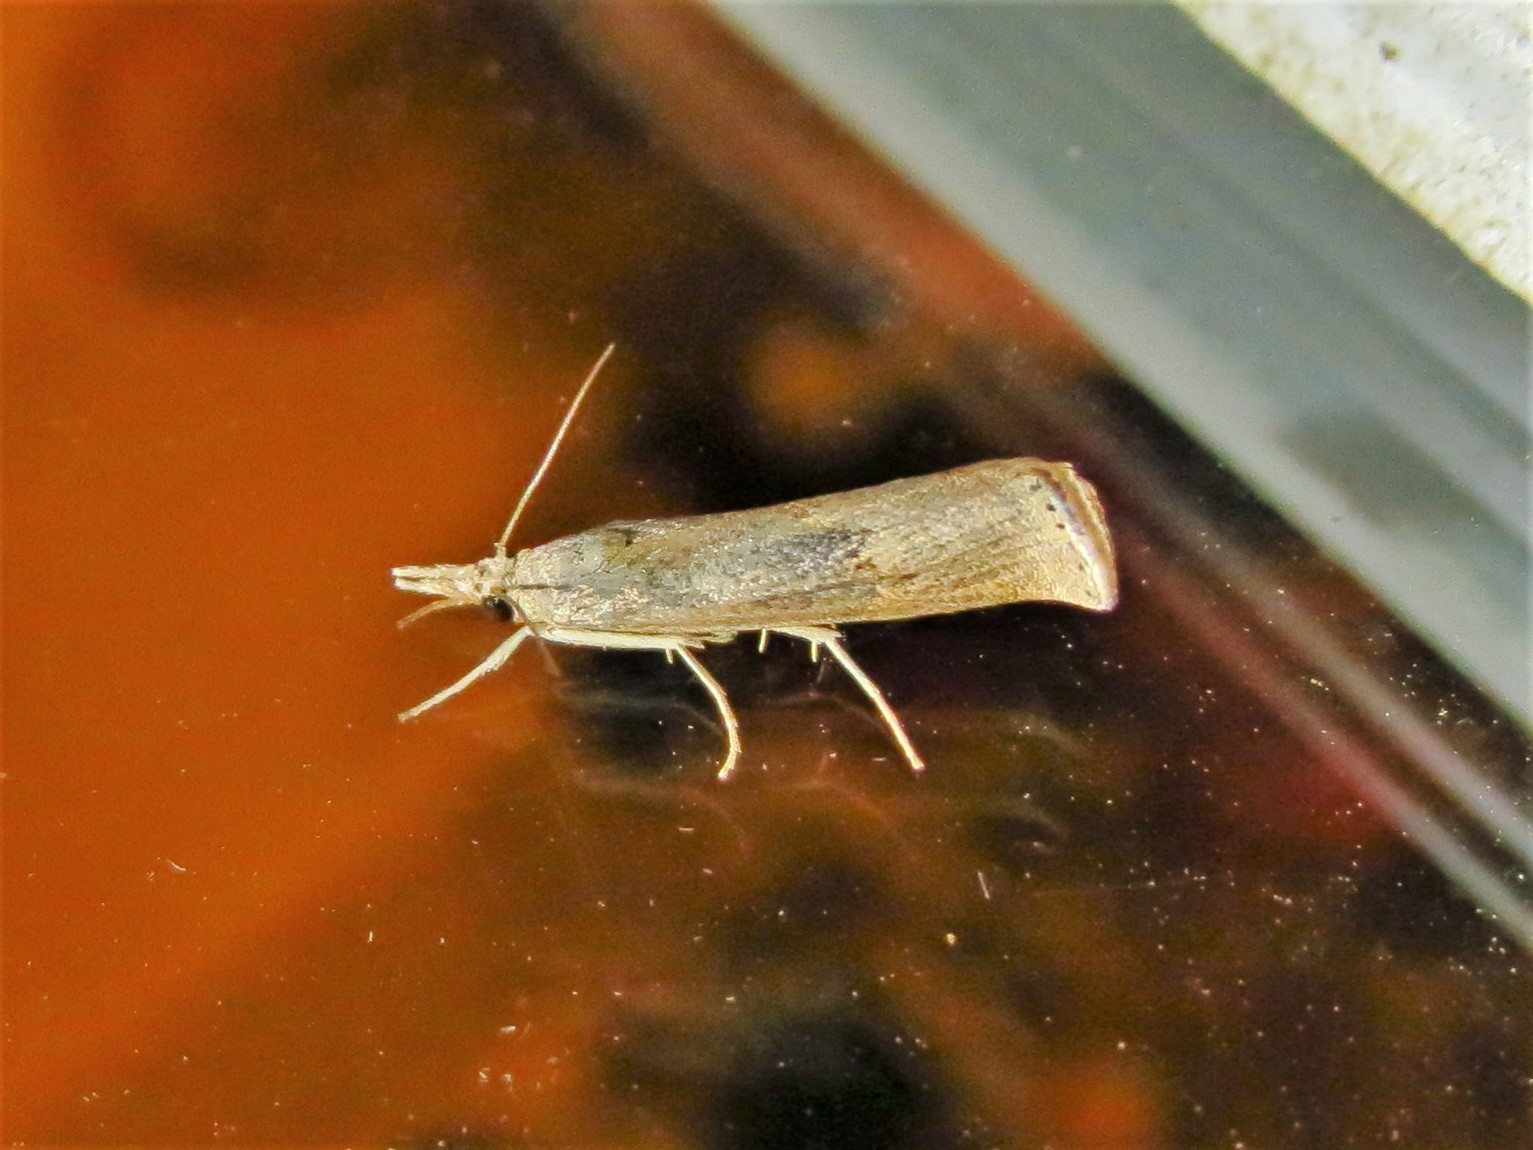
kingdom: Animalia
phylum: Arthropoda
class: Insecta
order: Lepidoptera
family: Crambidae
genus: Parapediasia
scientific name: Parapediasia teterellus
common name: Bluegrass webworm moth
